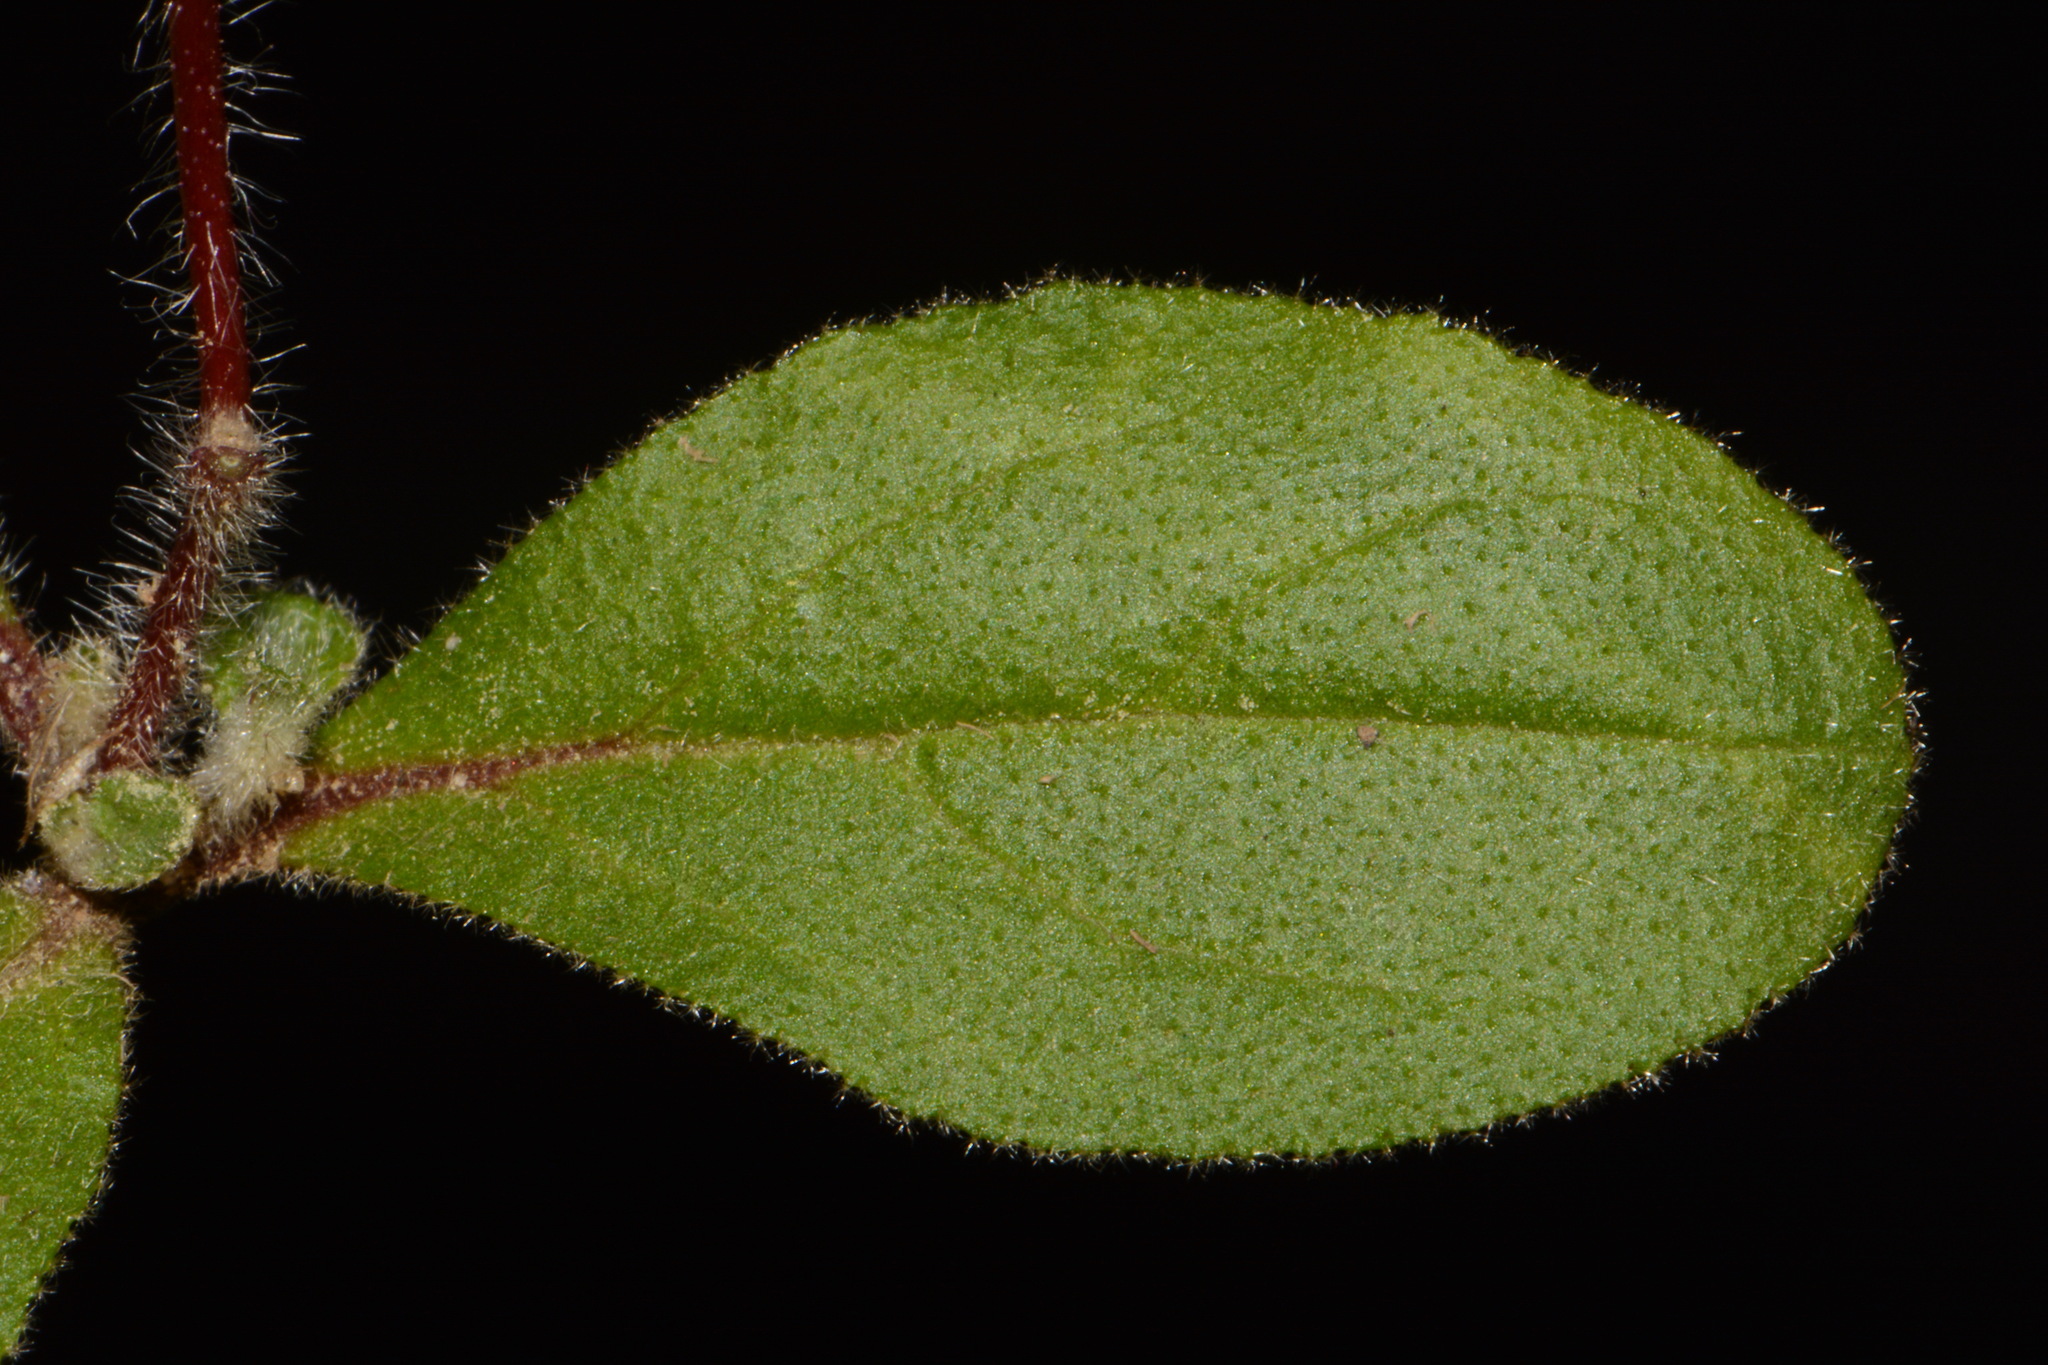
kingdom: Plantae
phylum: Tracheophyta
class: Magnoliopsida
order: Malvales
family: Cistaceae
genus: Crocanthemum
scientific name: Crocanthemum carolinianum
